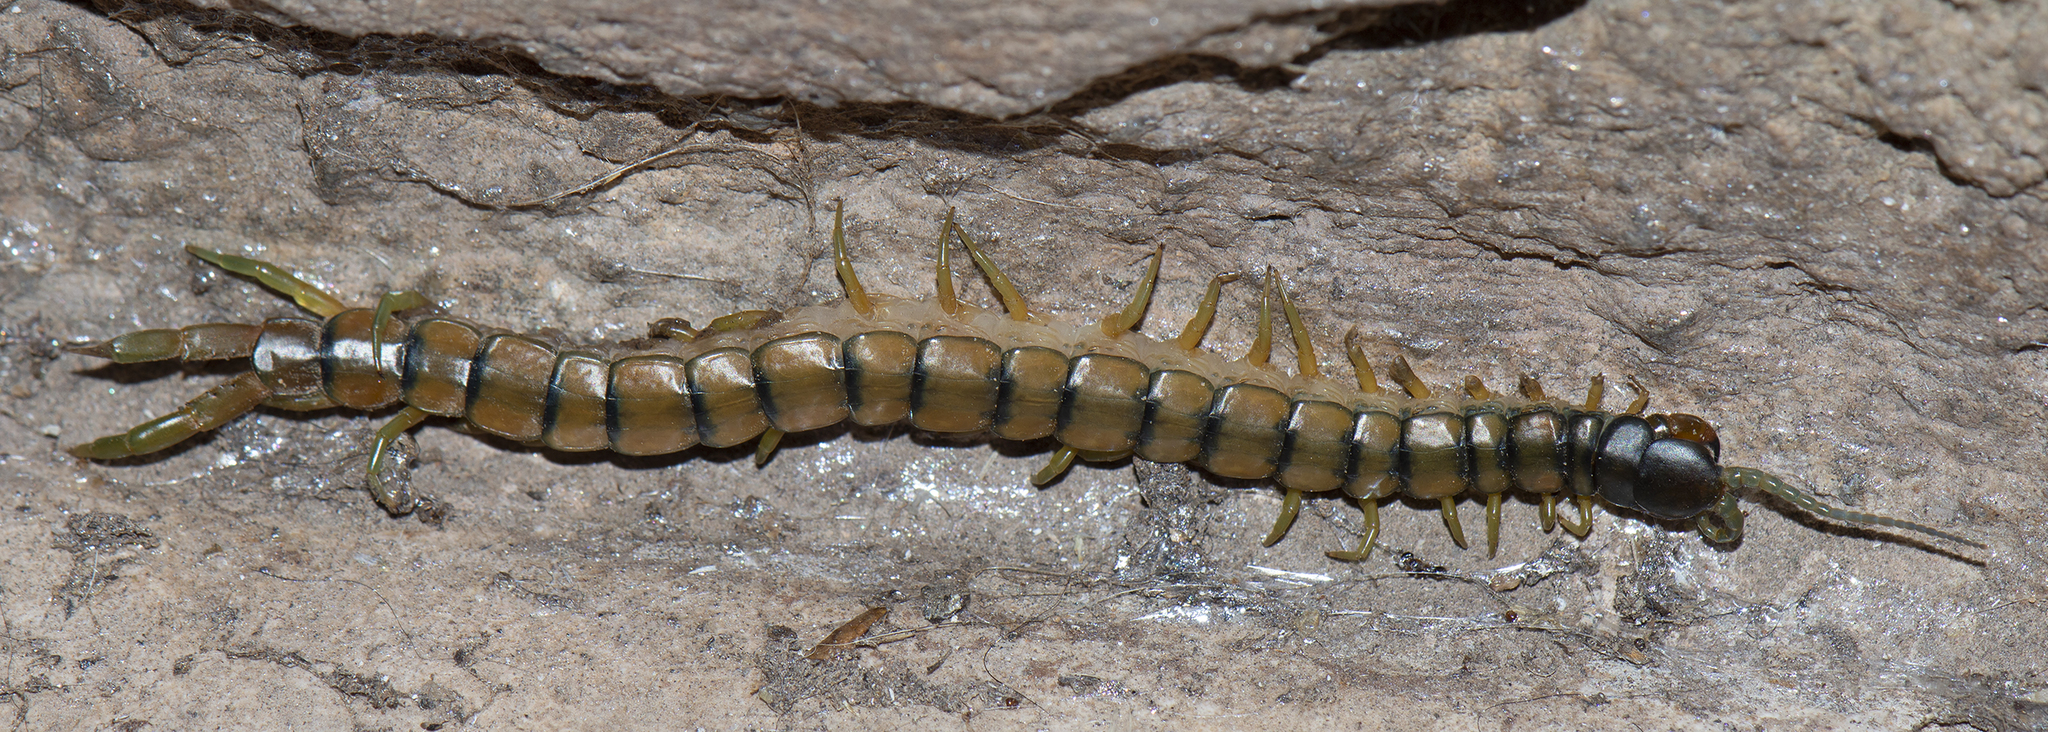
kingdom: Animalia
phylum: Arthropoda
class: Chilopoda
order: Scolopendromorpha
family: Scolopendridae
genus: Scolopendra
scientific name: Scolopendra cingulata
